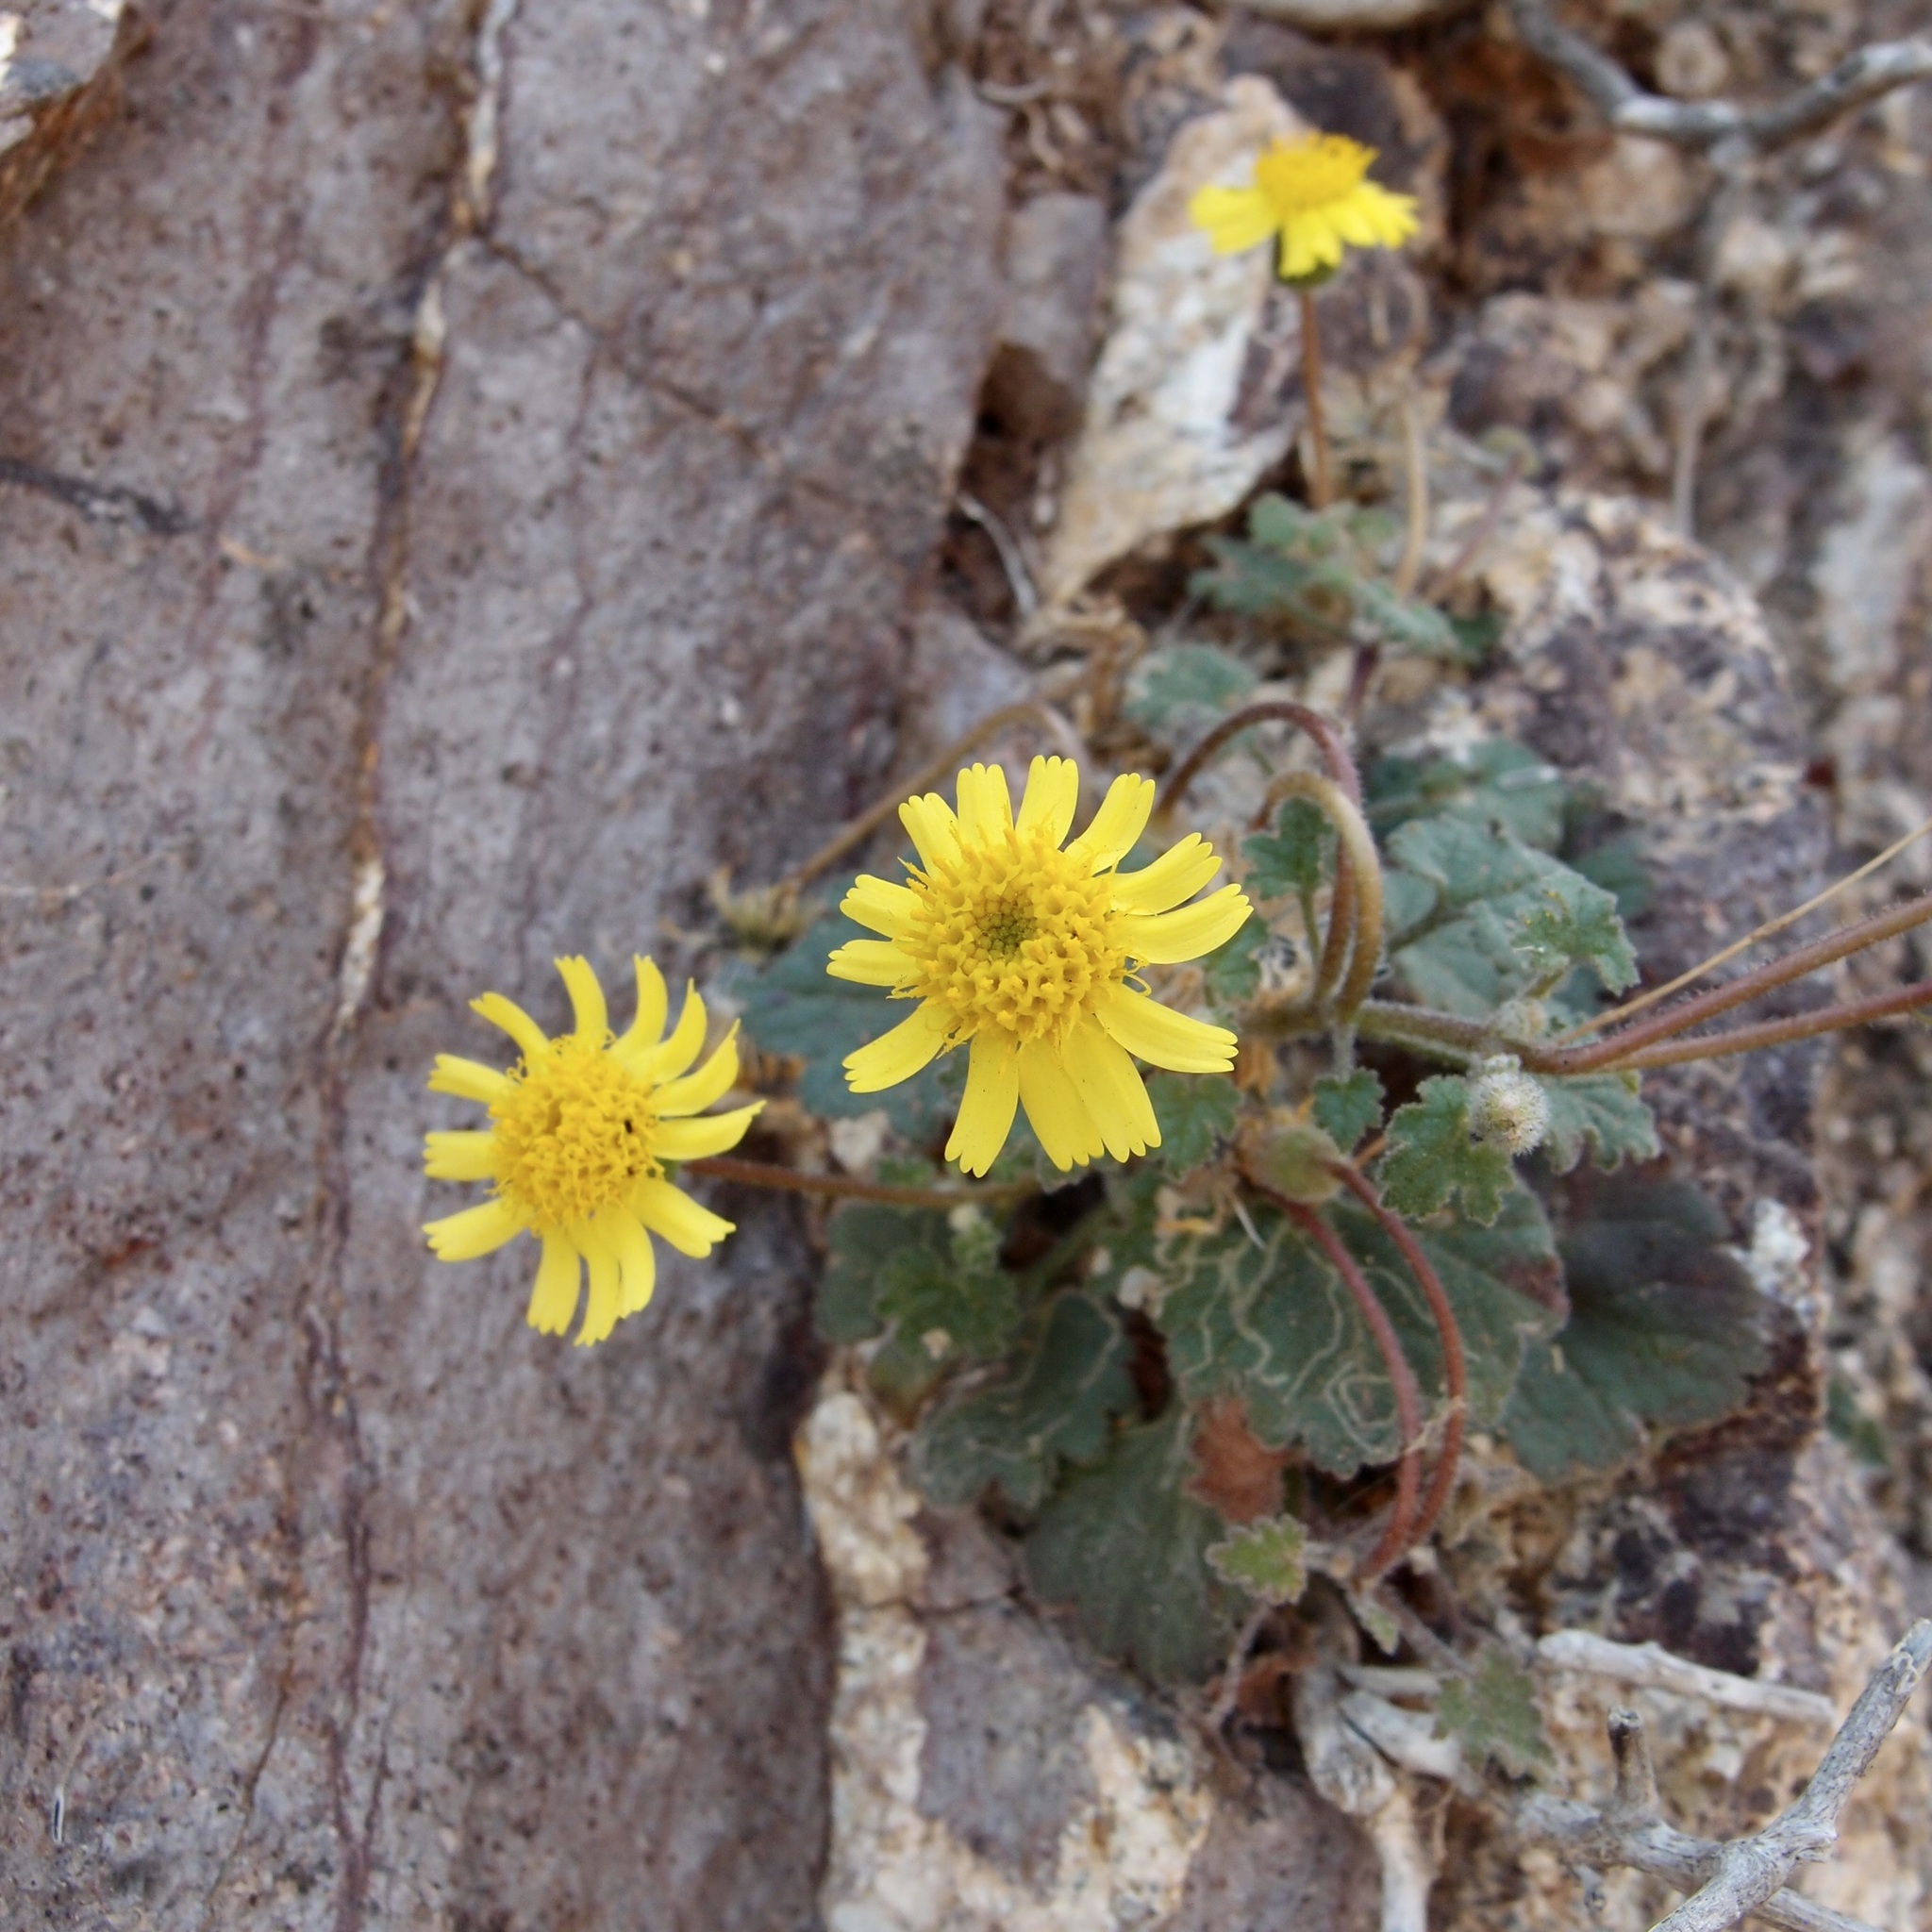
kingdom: Plantae
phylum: Tracheophyta
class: Magnoliopsida
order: Asterales
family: Asteraceae
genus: Laphamia
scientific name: Laphamia sanchezii
